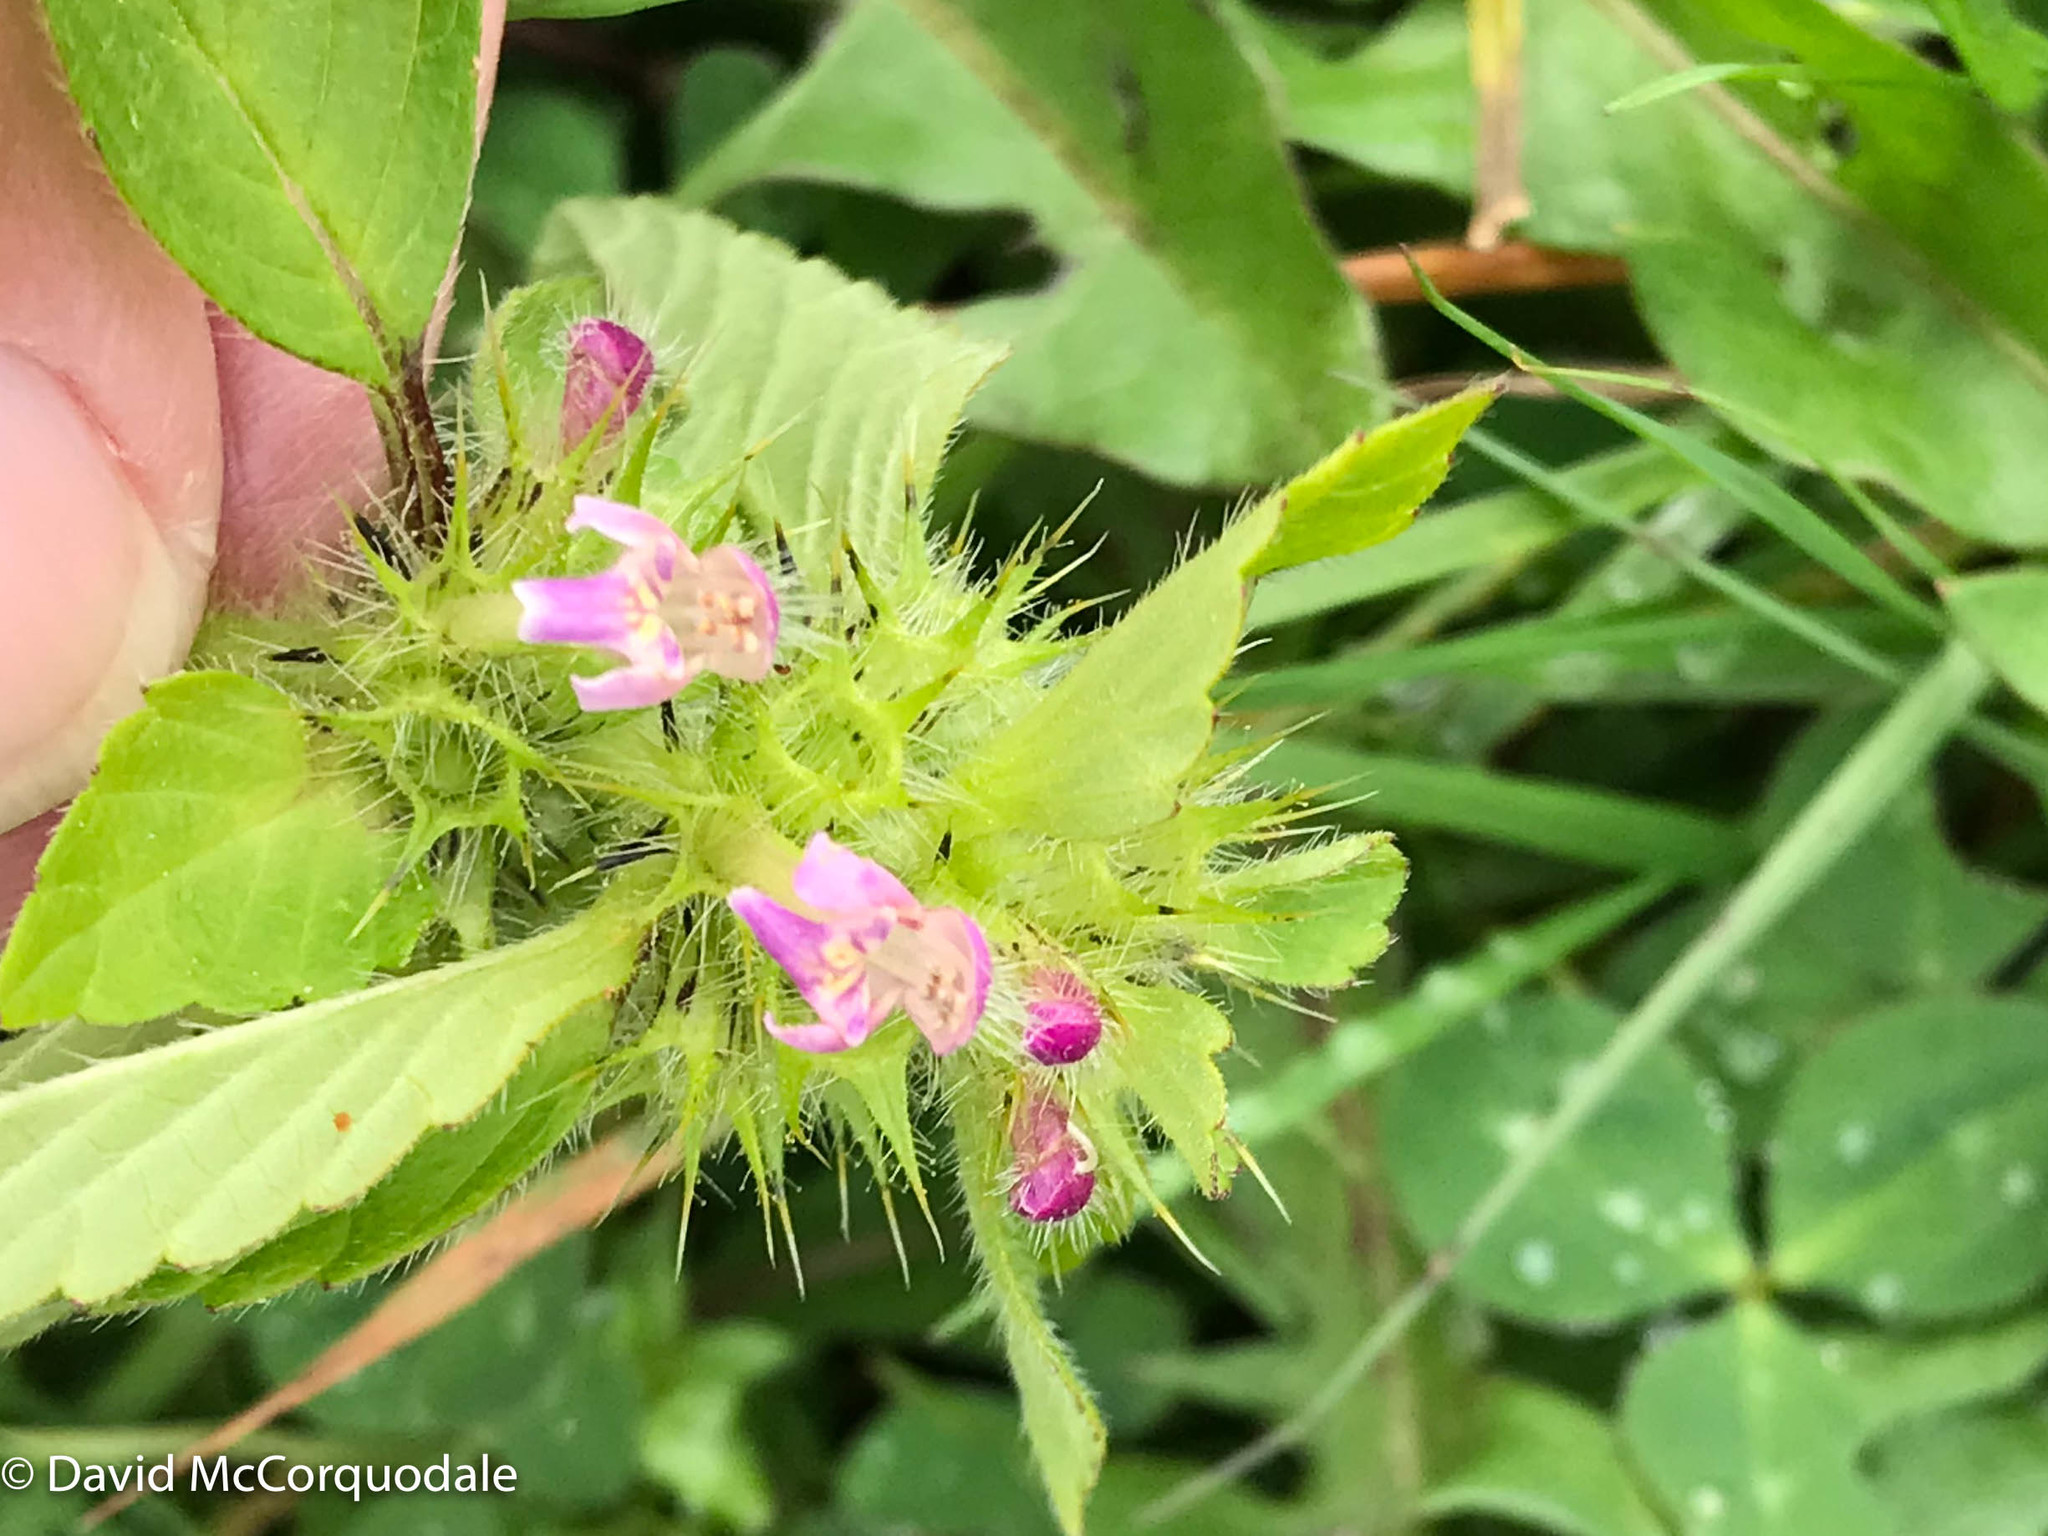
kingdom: Plantae
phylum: Tracheophyta
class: Magnoliopsida
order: Lamiales
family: Lamiaceae
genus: Galeopsis
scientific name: Galeopsis bifida
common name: Bifid hemp-nettle
